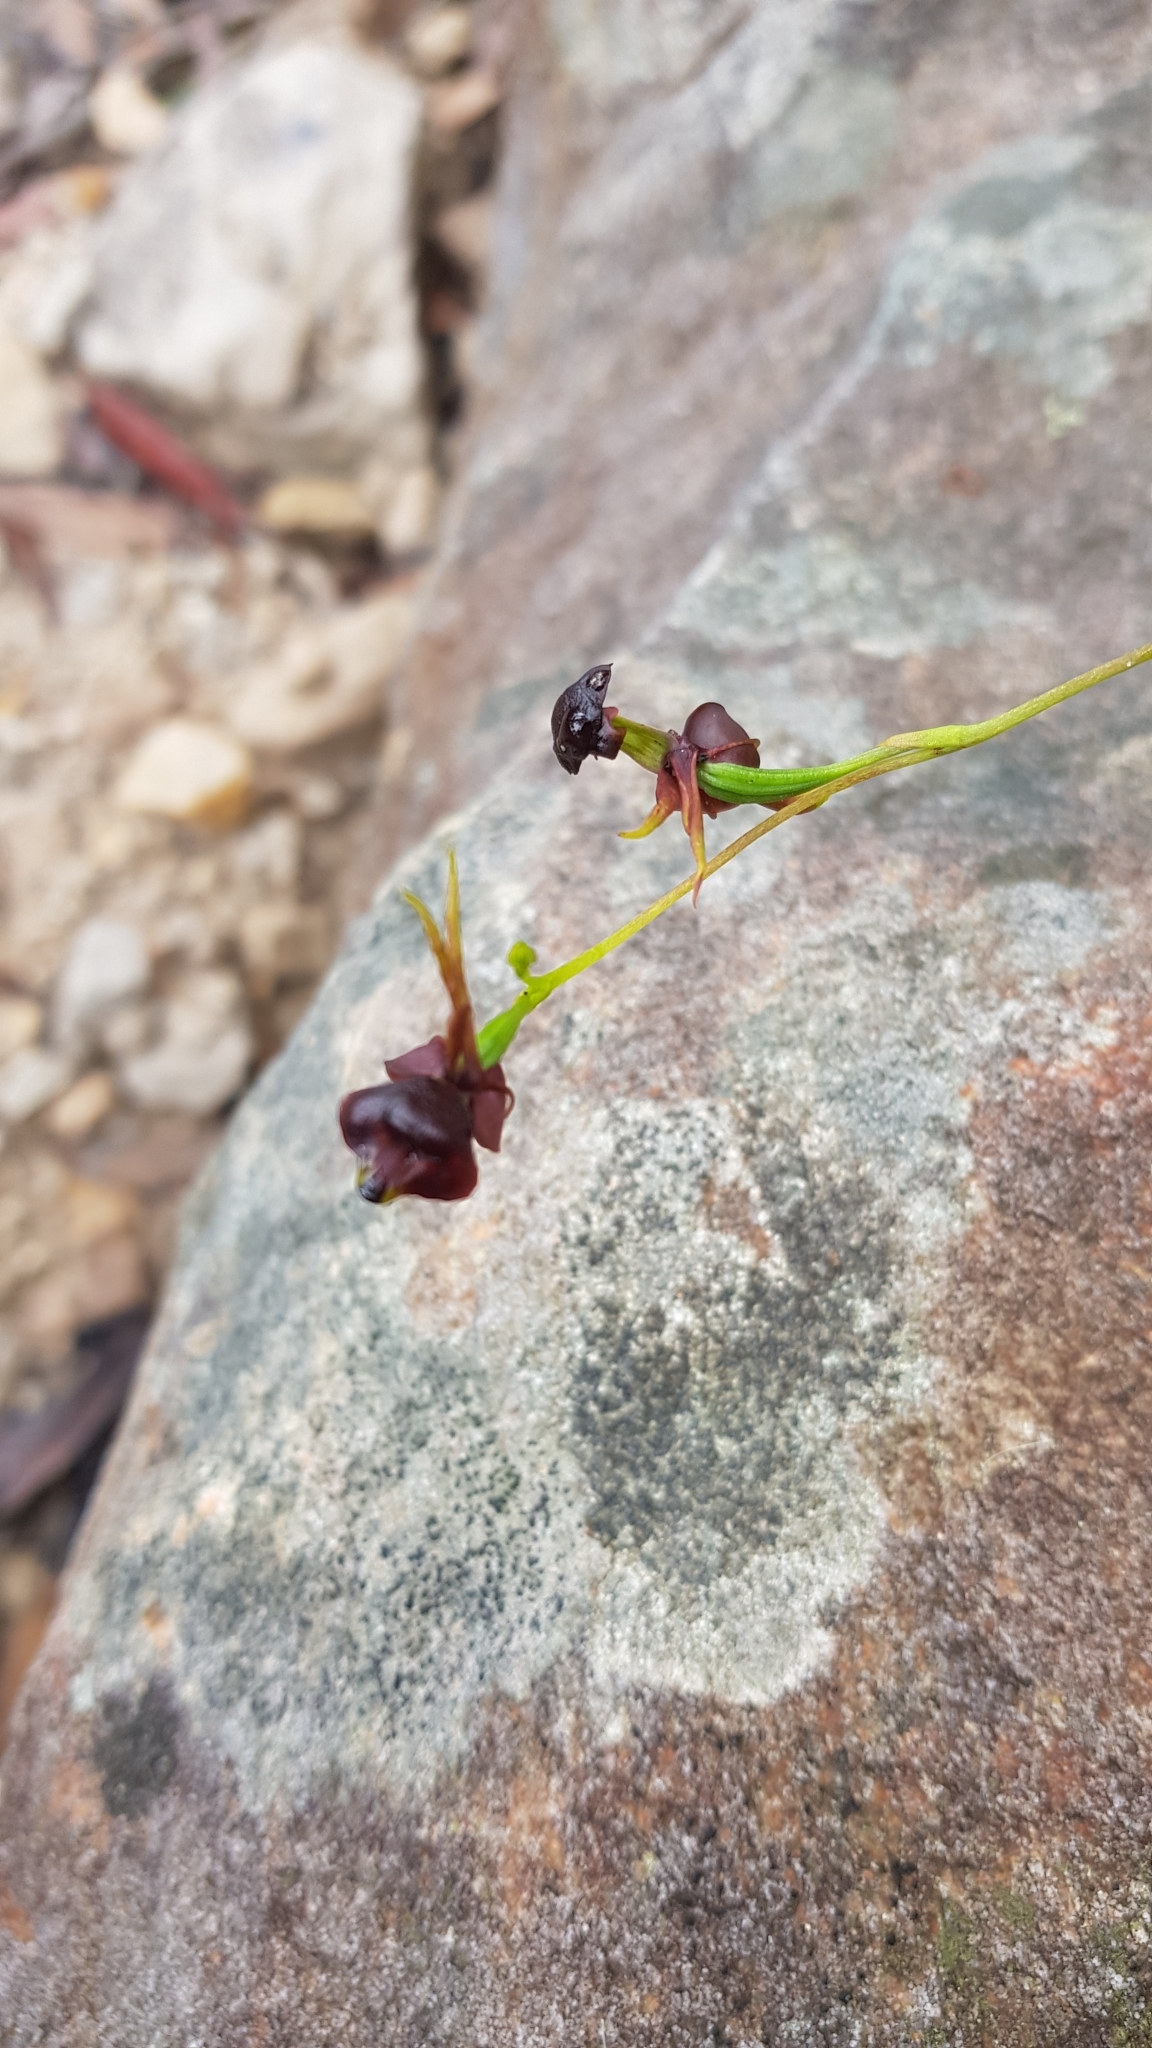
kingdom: Plantae
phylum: Tracheophyta
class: Liliopsida
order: Asparagales
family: Orchidaceae
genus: Caleana
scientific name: Caleana major
